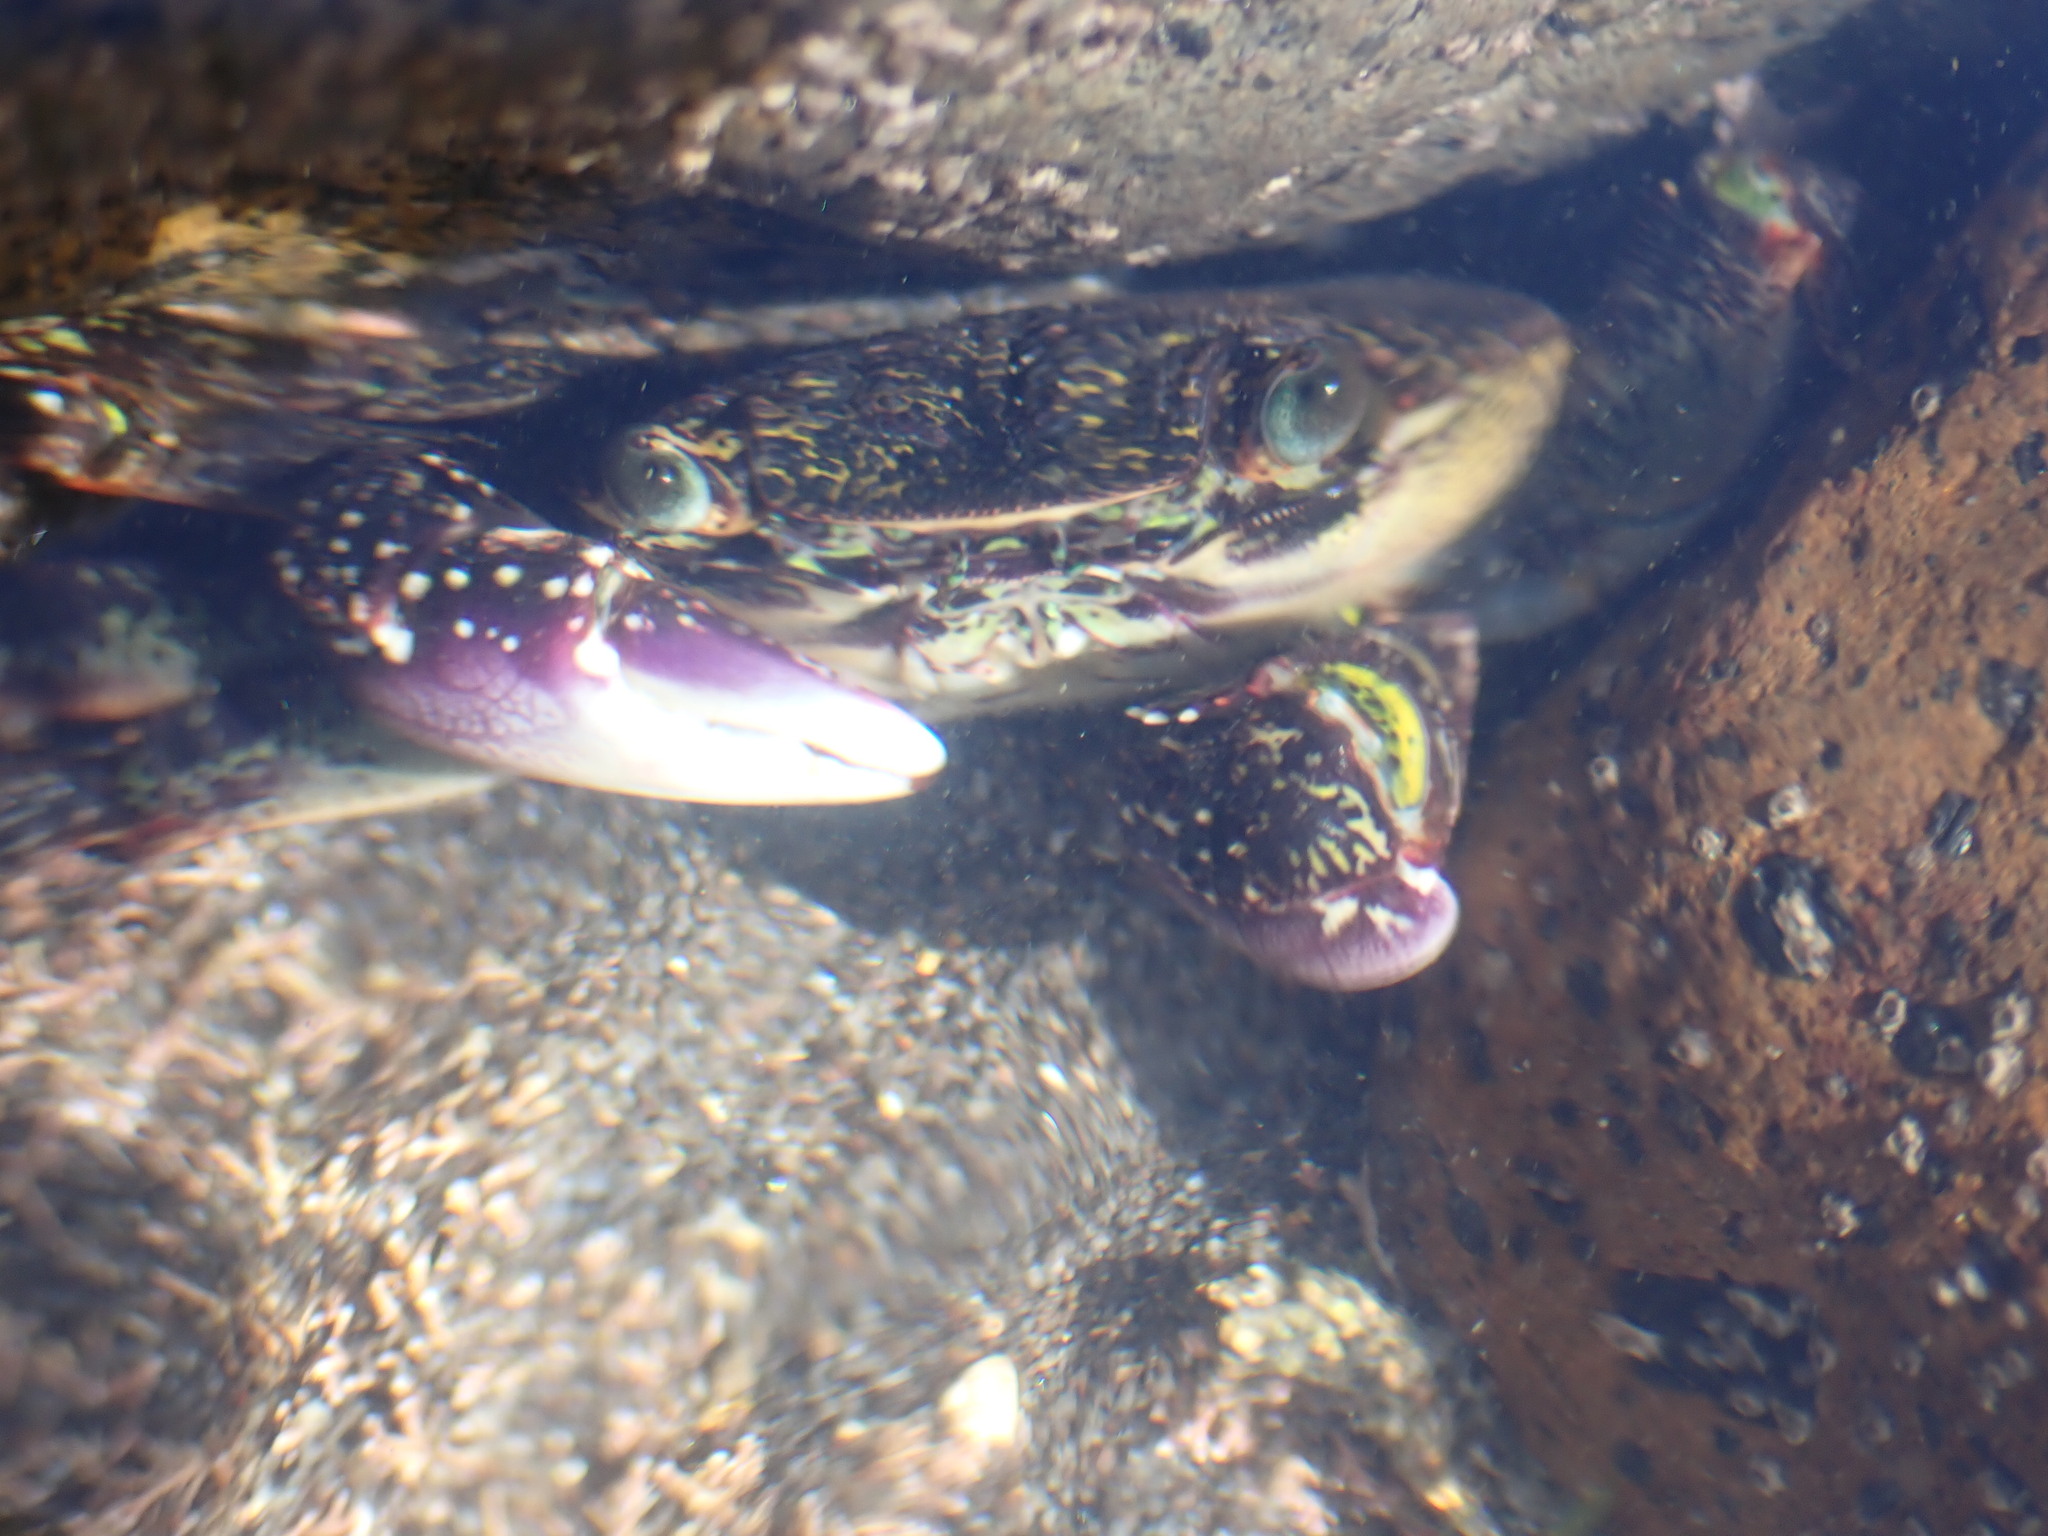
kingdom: Animalia
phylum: Arthropoda
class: Malacostraca
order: Decapoda
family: Grapsidae
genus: Leptograpsus
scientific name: Leptograpsus variegatus
